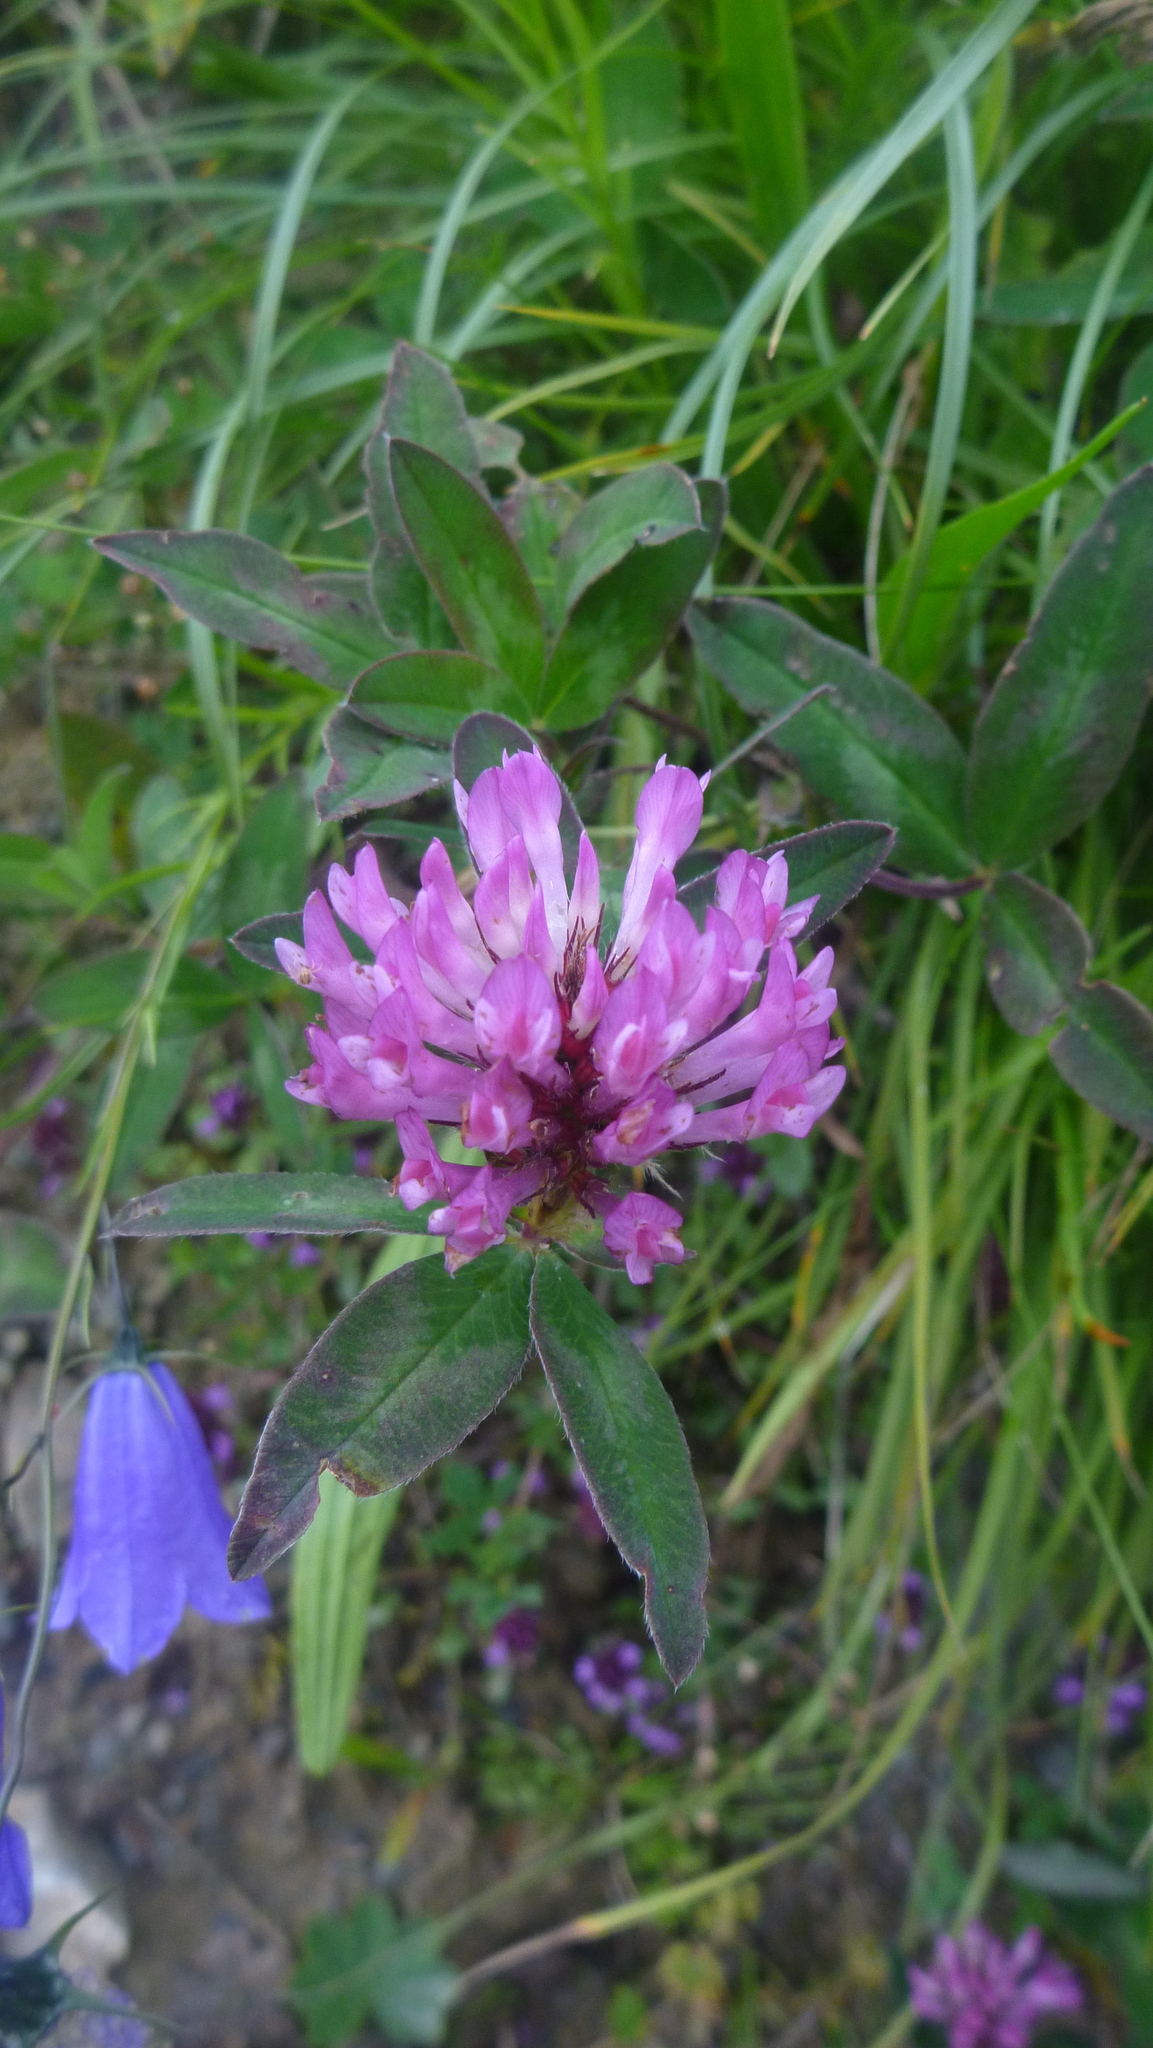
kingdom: Plantae
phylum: Tracheophyta
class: Magnoliopsida
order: Fabales
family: Fabaceae
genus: Trifolium
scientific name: Trifolium medium
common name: Zigzag clover
